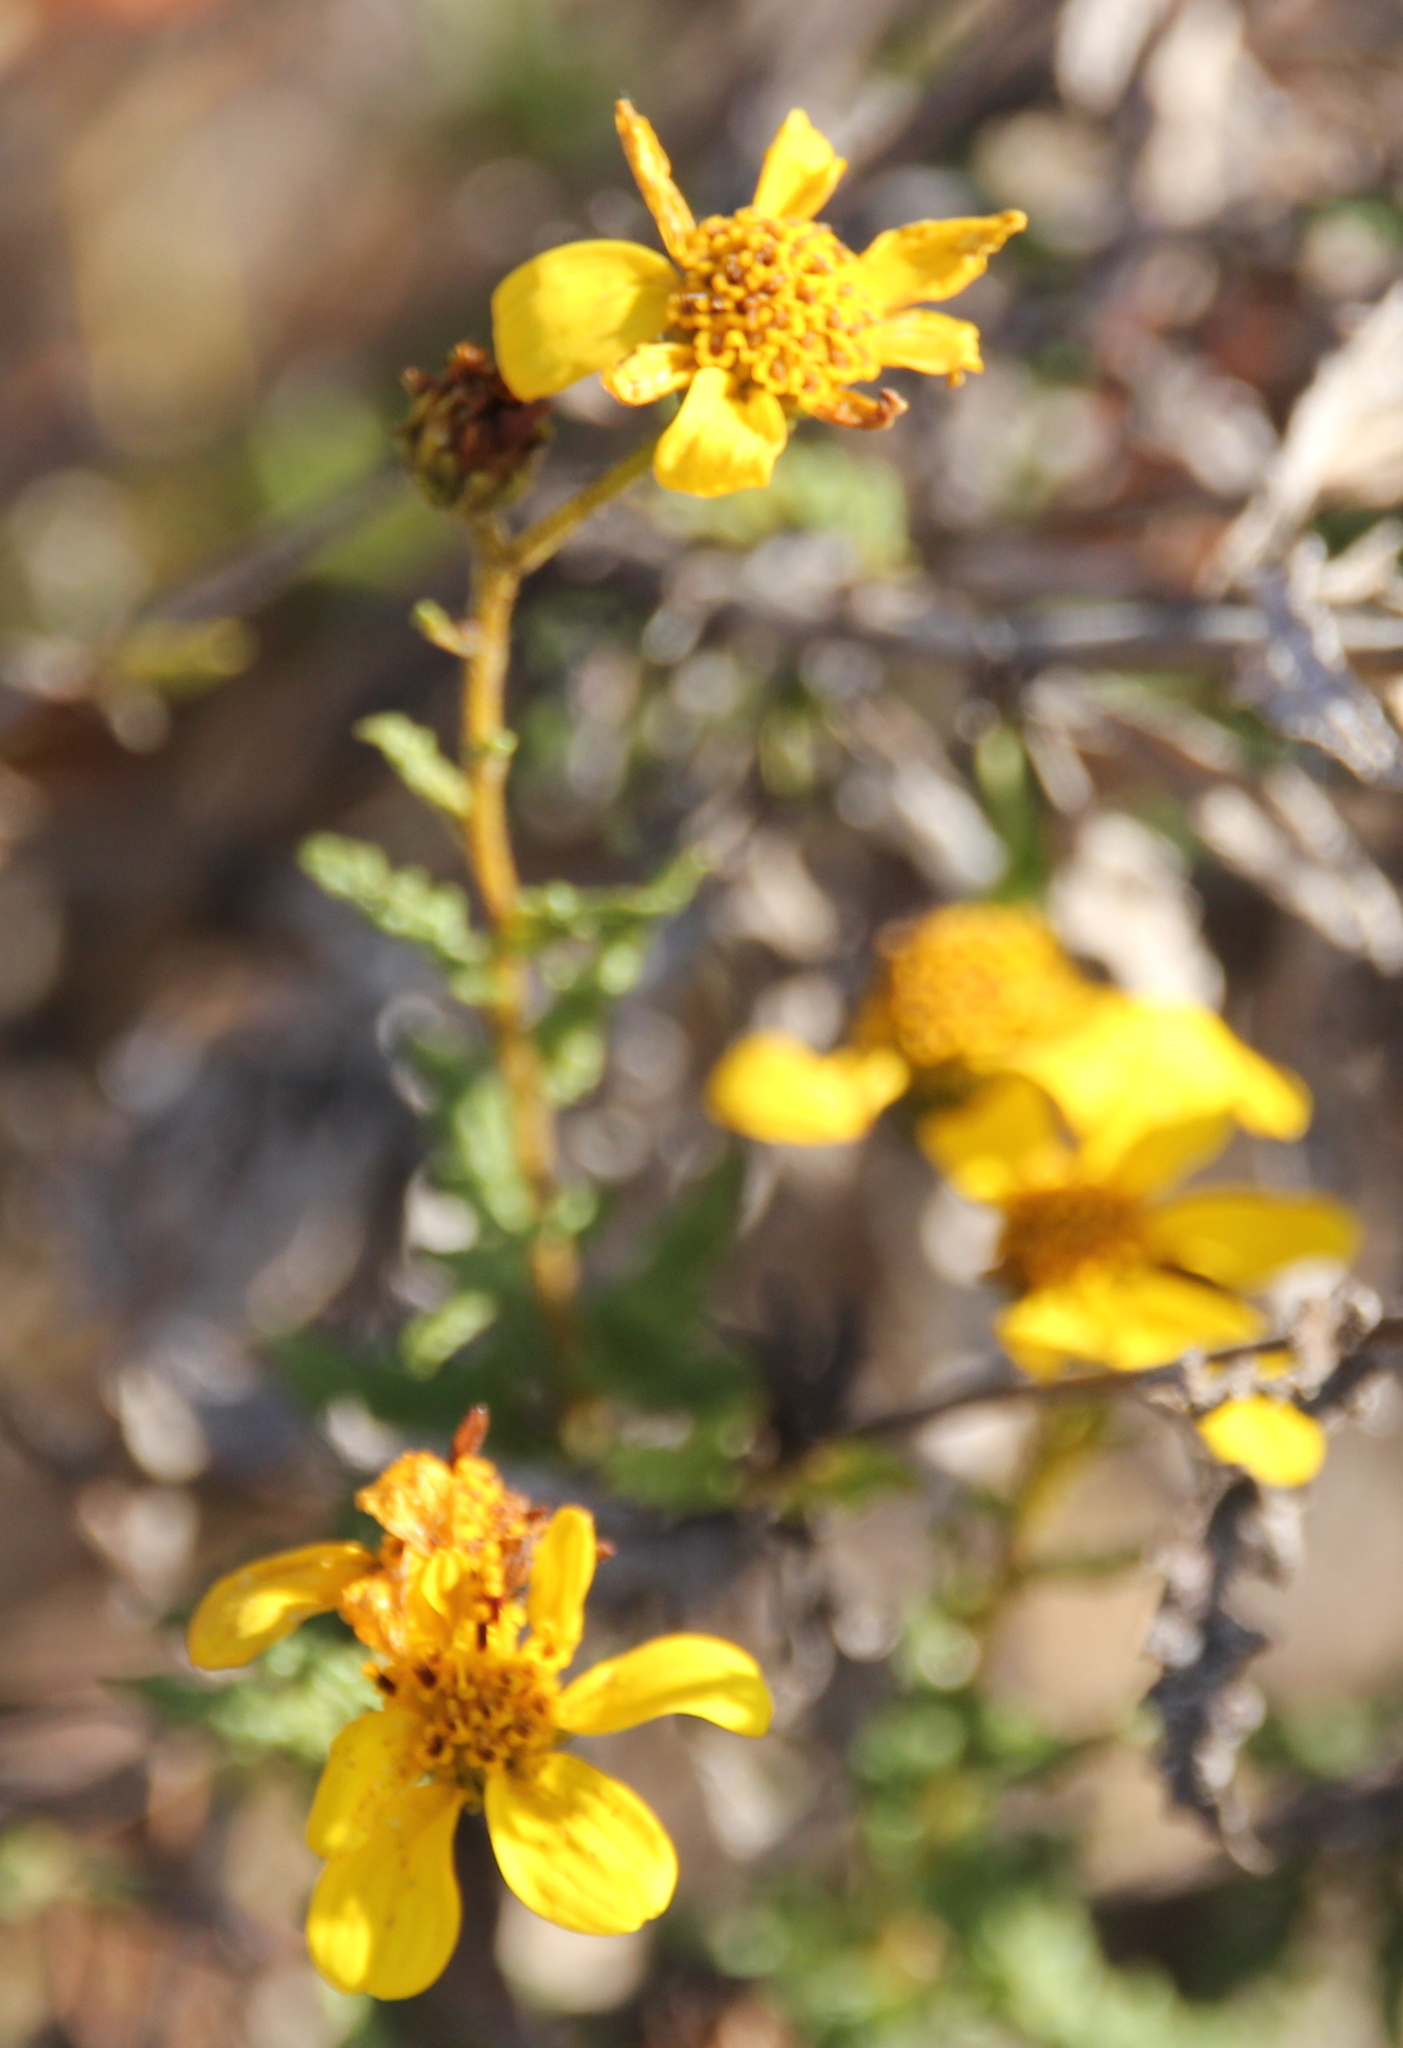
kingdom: Plantae
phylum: Tracheophyta
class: Magnoliopsida
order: Asterales
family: Asteraceae
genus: Bahiopsis
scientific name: Bahiopsis laciniata
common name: San diego county viguiera
